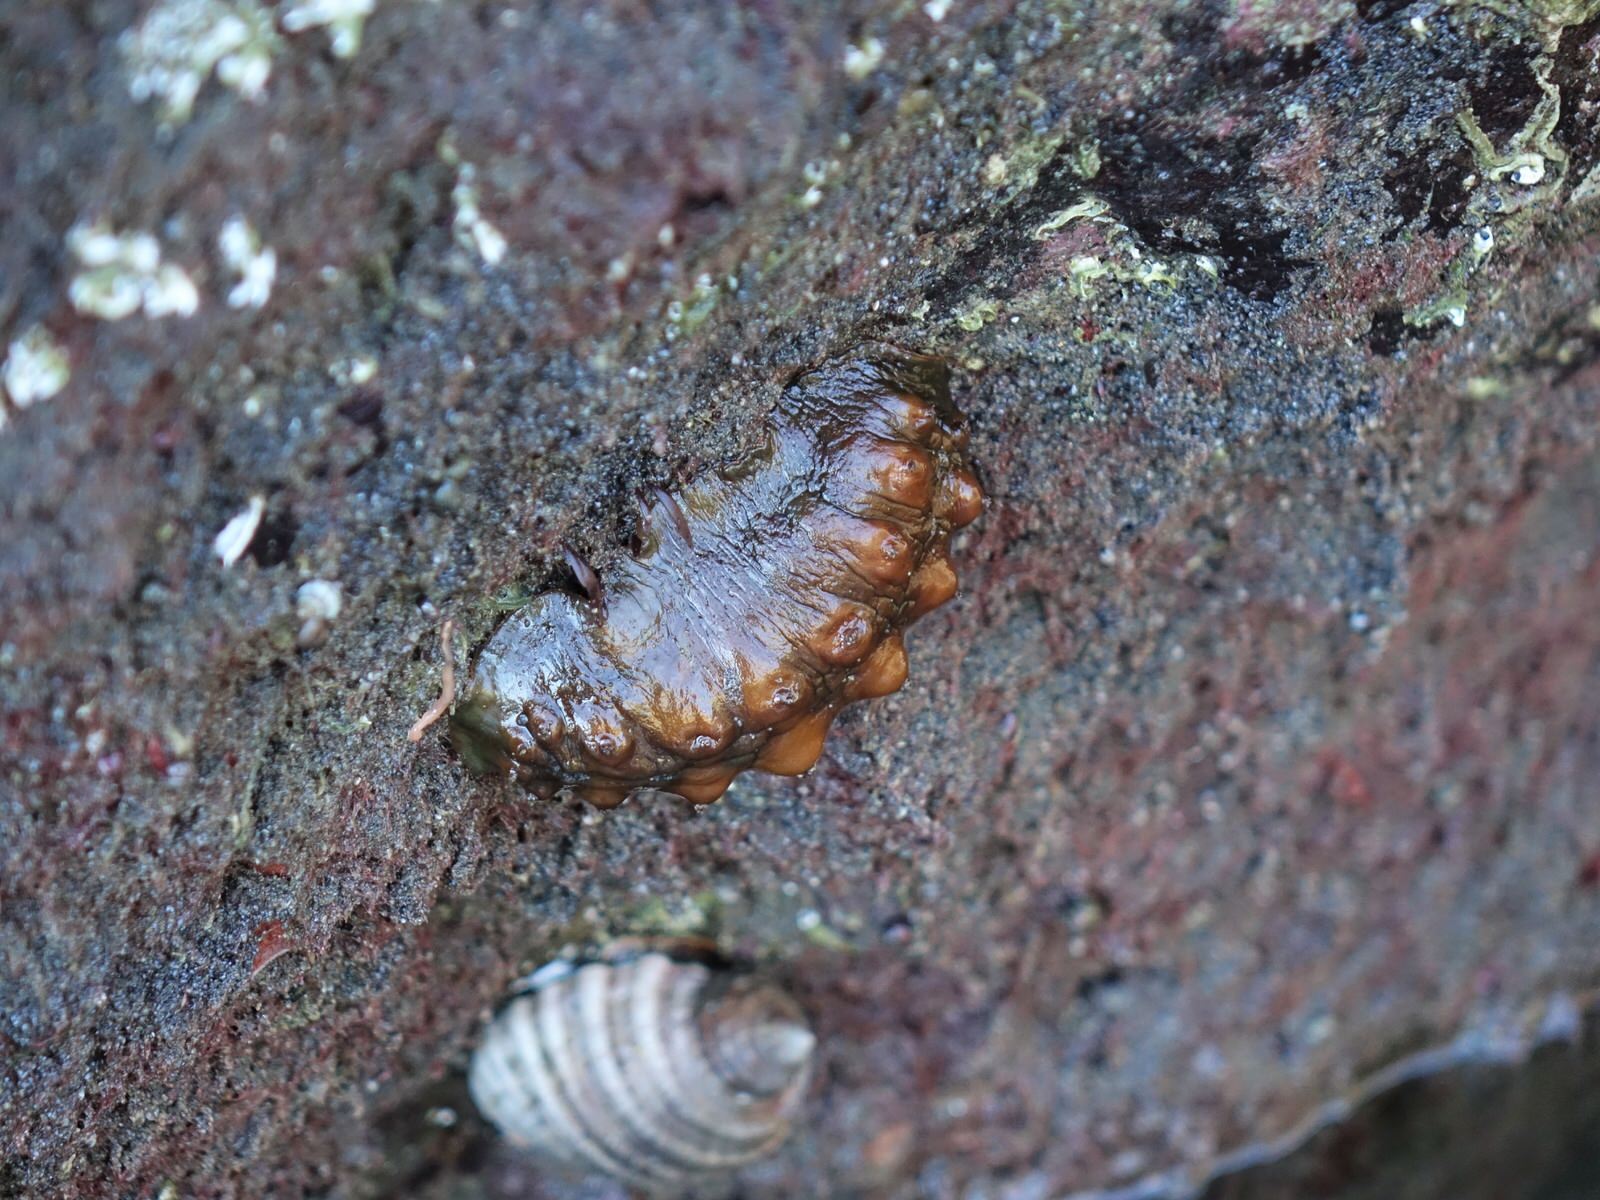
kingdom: Animalia
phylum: Mollusca
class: Polyplacophora
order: Chitonida
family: Acanthochitonidae
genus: Cryptoconchus
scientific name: Cryptoconchus porosus
